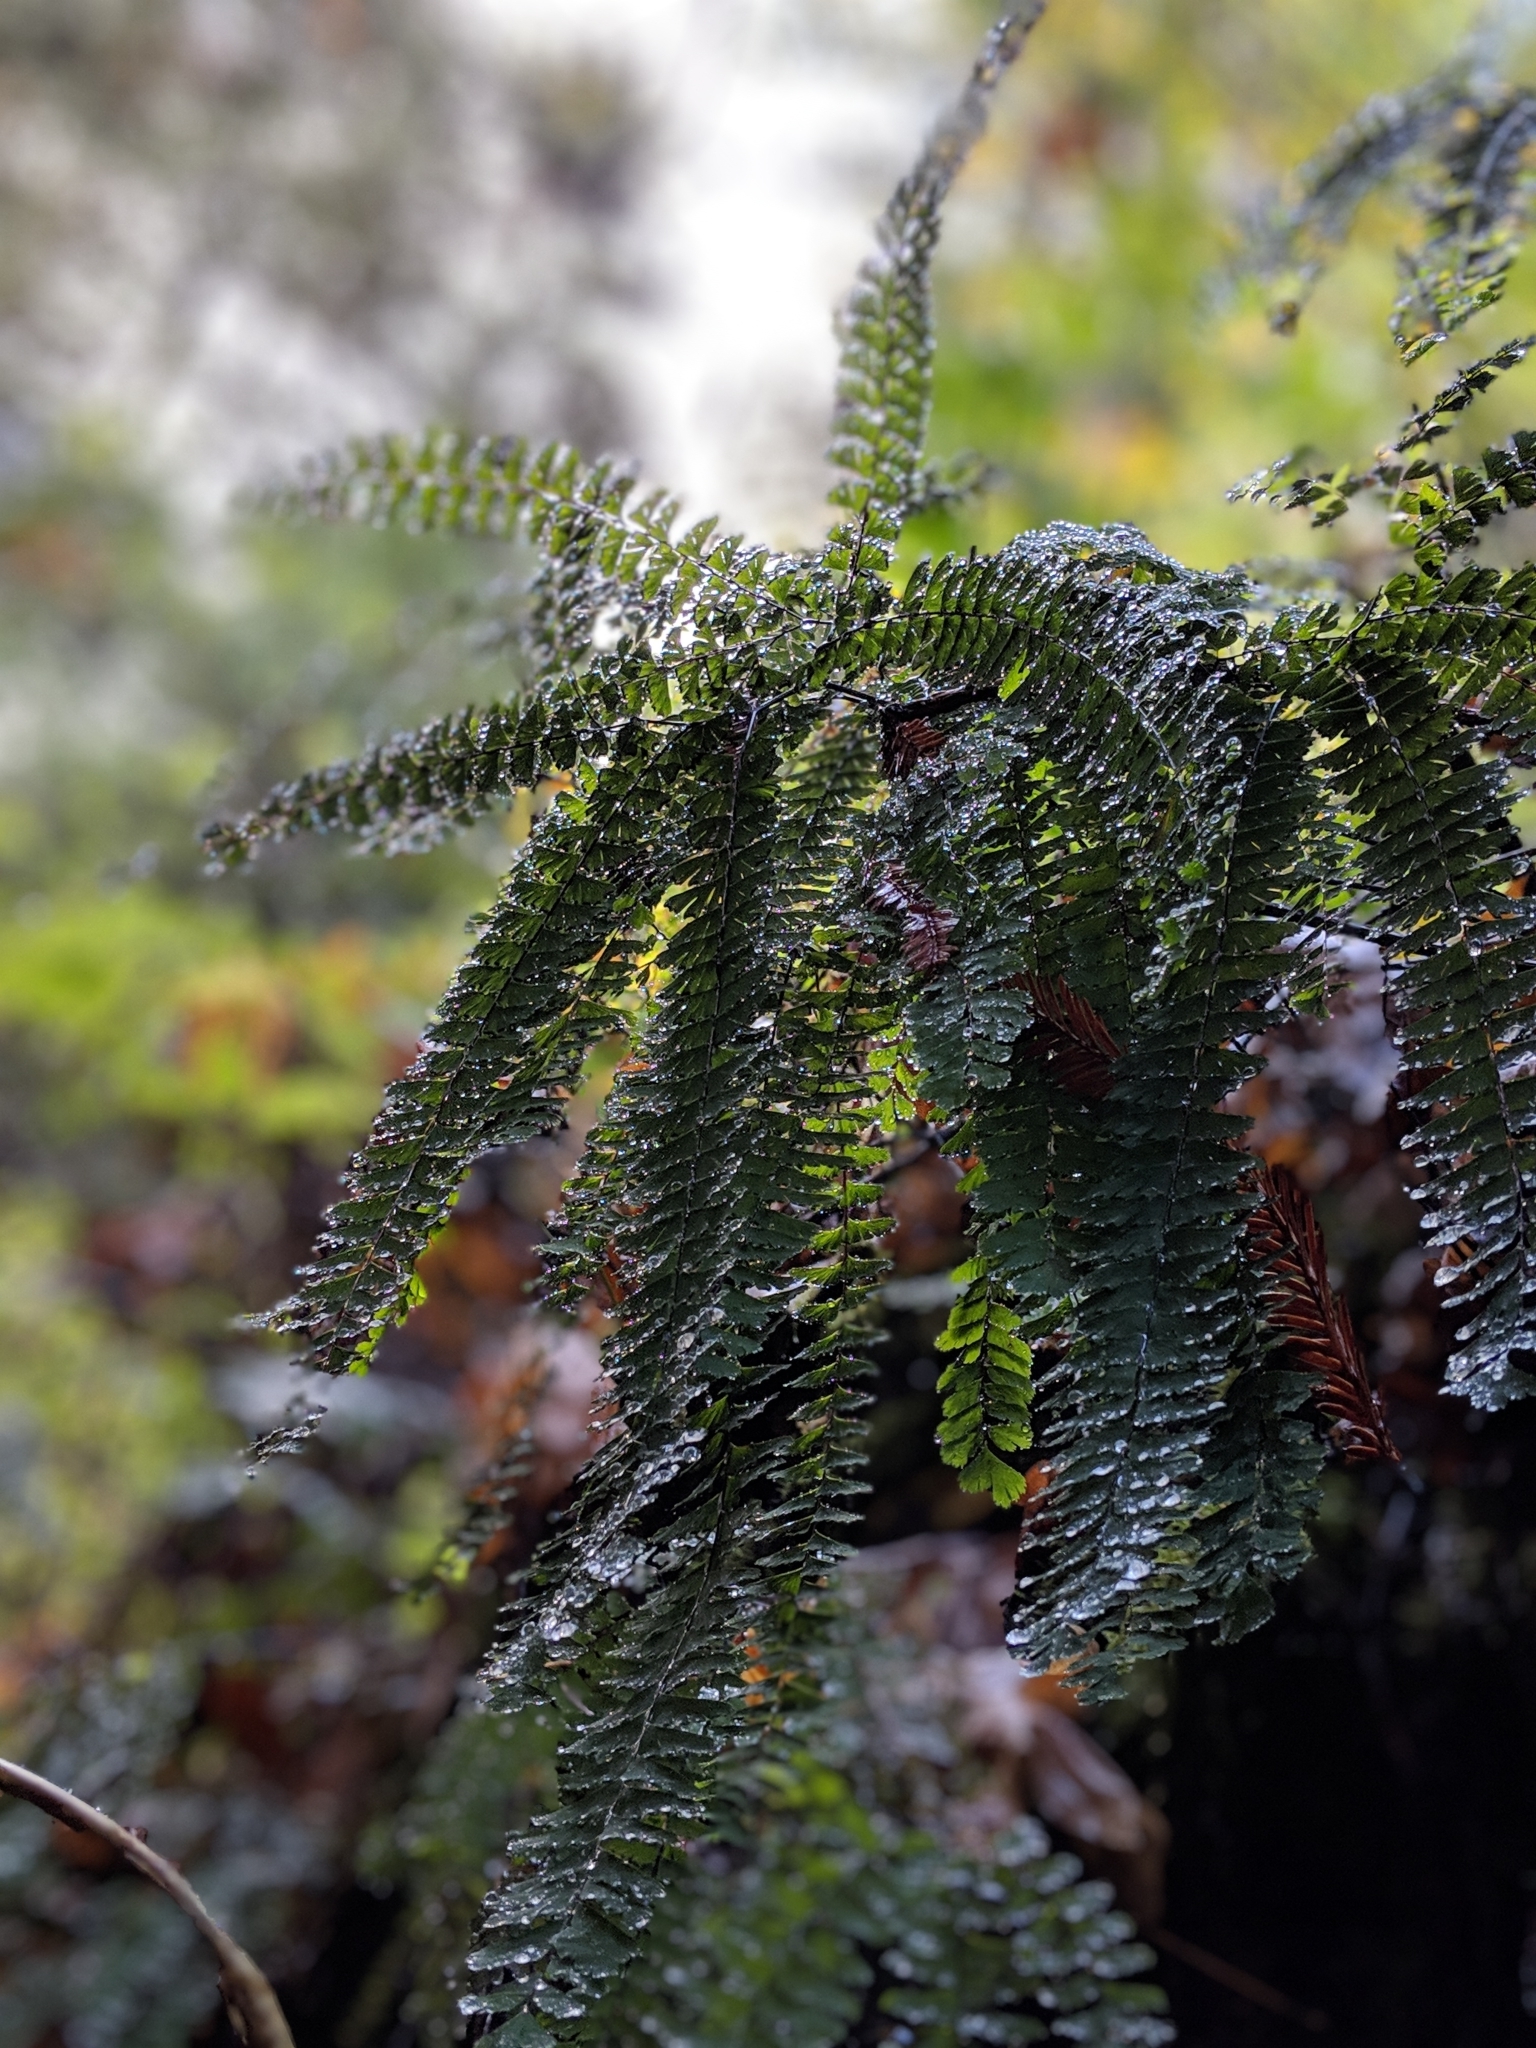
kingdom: Plantae
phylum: Tracheophyta
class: Polypodiopsida
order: Polypodiales
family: Pteridaceae
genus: Adiantum
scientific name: Adiantum aleuticum
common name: Aleutian maidenhair fern
